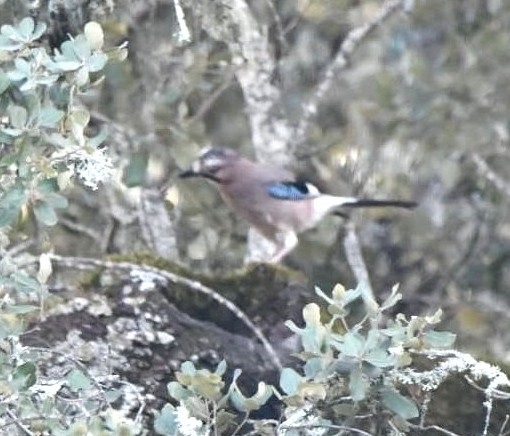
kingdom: Animalia
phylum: Chordata
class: Aves
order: Passeriformes
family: Corvidae
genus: Garrulus
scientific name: Garrulus glandarius
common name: Eurasian jay
